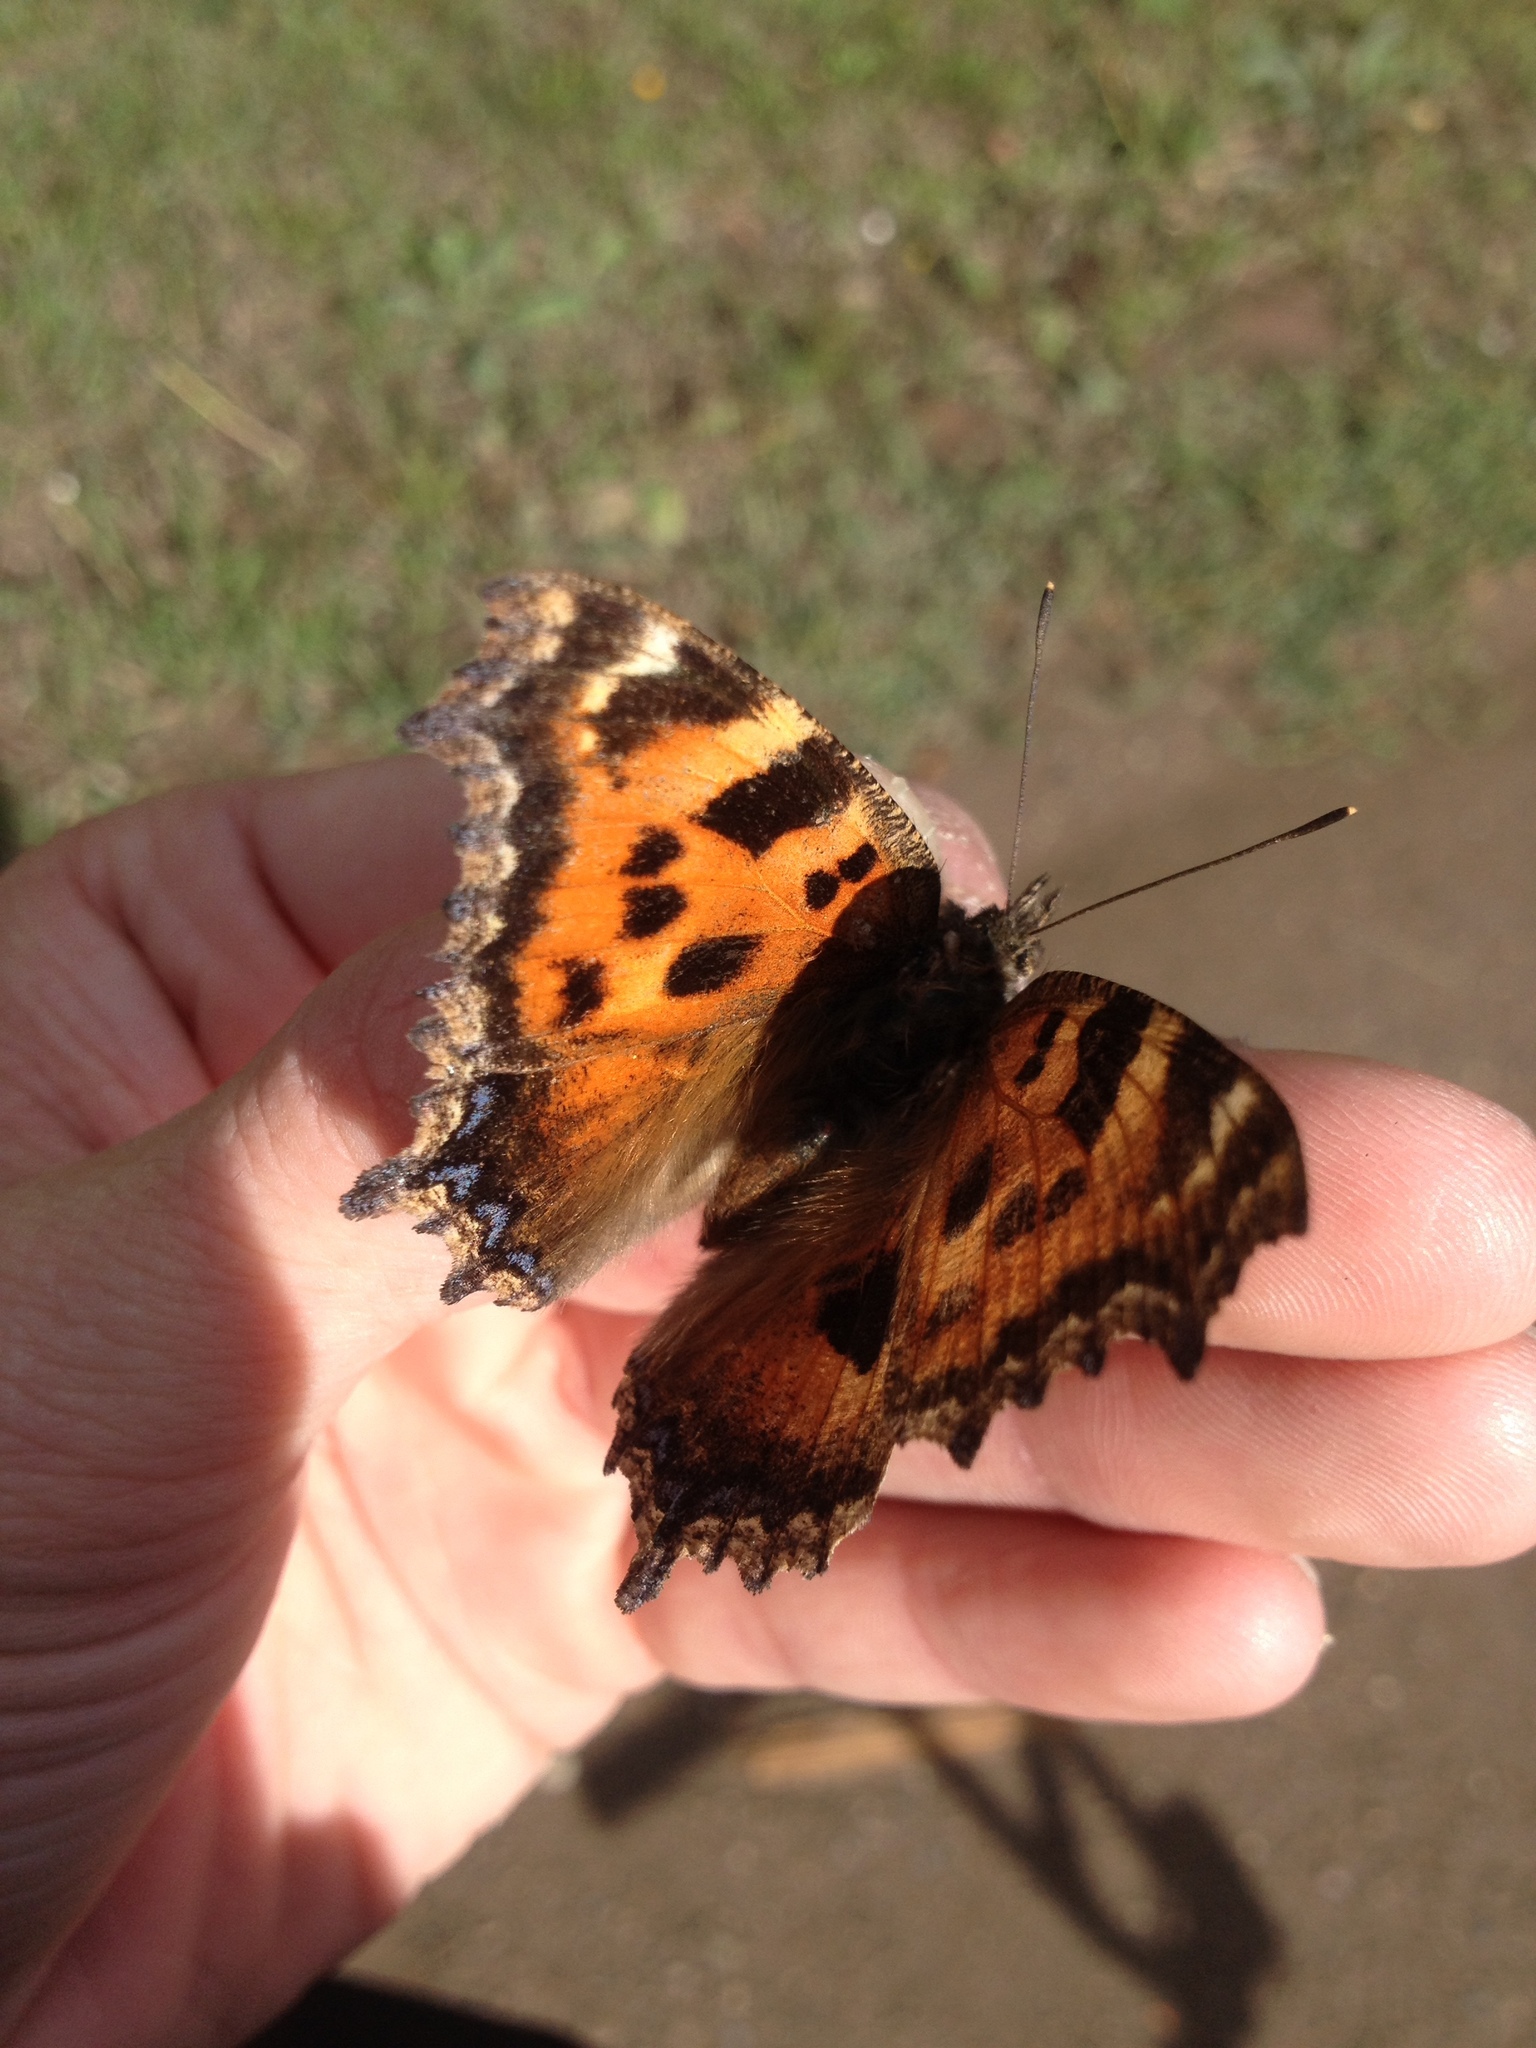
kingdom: Animalia
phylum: Arthropoda
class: Insecta
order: Lepidoptera
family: Nymphalidae
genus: Nymphalis
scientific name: Nymphalis xanthomelas
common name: Scarce tortoiseshell
